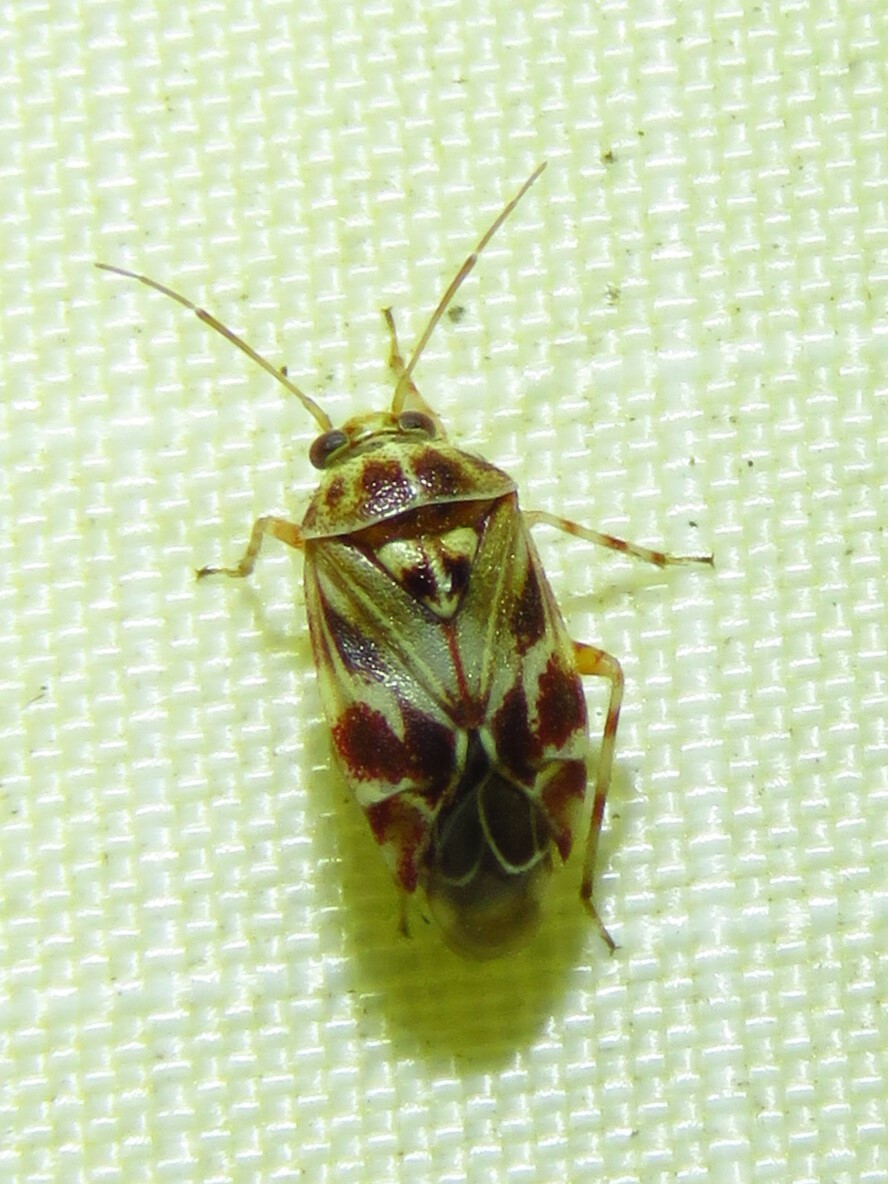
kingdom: Animalia
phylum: Arthropoda
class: Insecta
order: Hemiptera
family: Miridae
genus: Tropidosteptes
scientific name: Tropidosteptes quercicola
